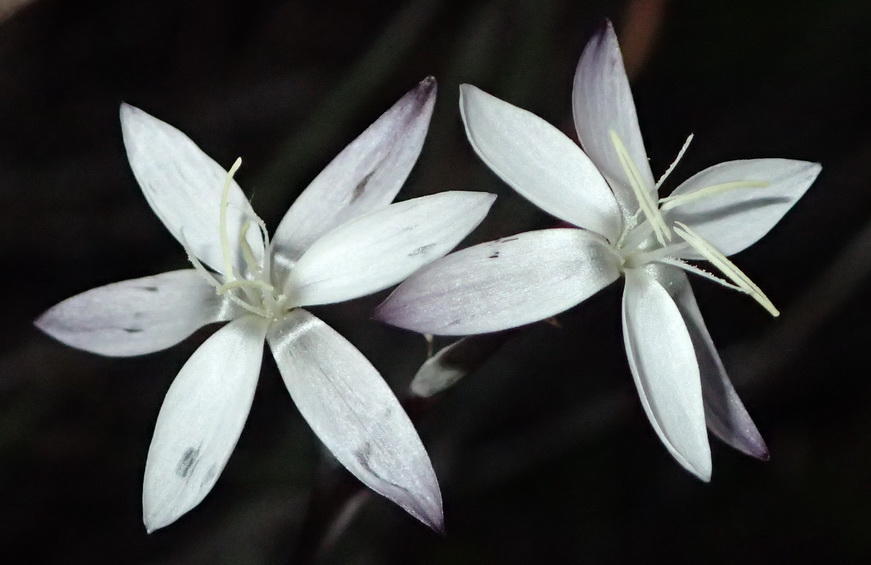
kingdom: Plantae
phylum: Tracheophyta
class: Liliopsida
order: Asparagales
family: Iridaceae
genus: Hesperantha
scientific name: Hesperantha falcata
